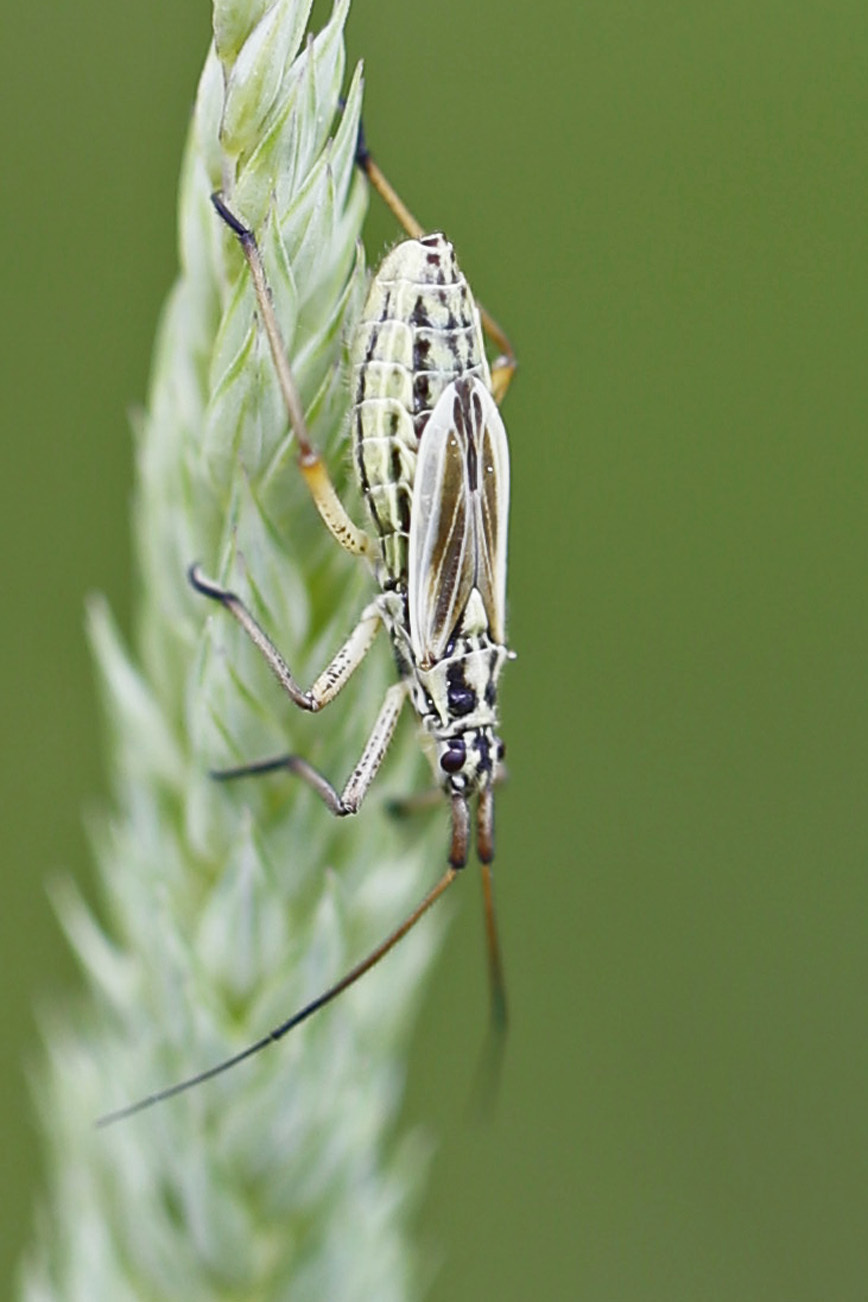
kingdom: Animalia
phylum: Arthropoda
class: Insecta
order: Hemiptera
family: Miridae
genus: Leptopterna
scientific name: Leptopterna dolabrata
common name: Meadow plant bug
